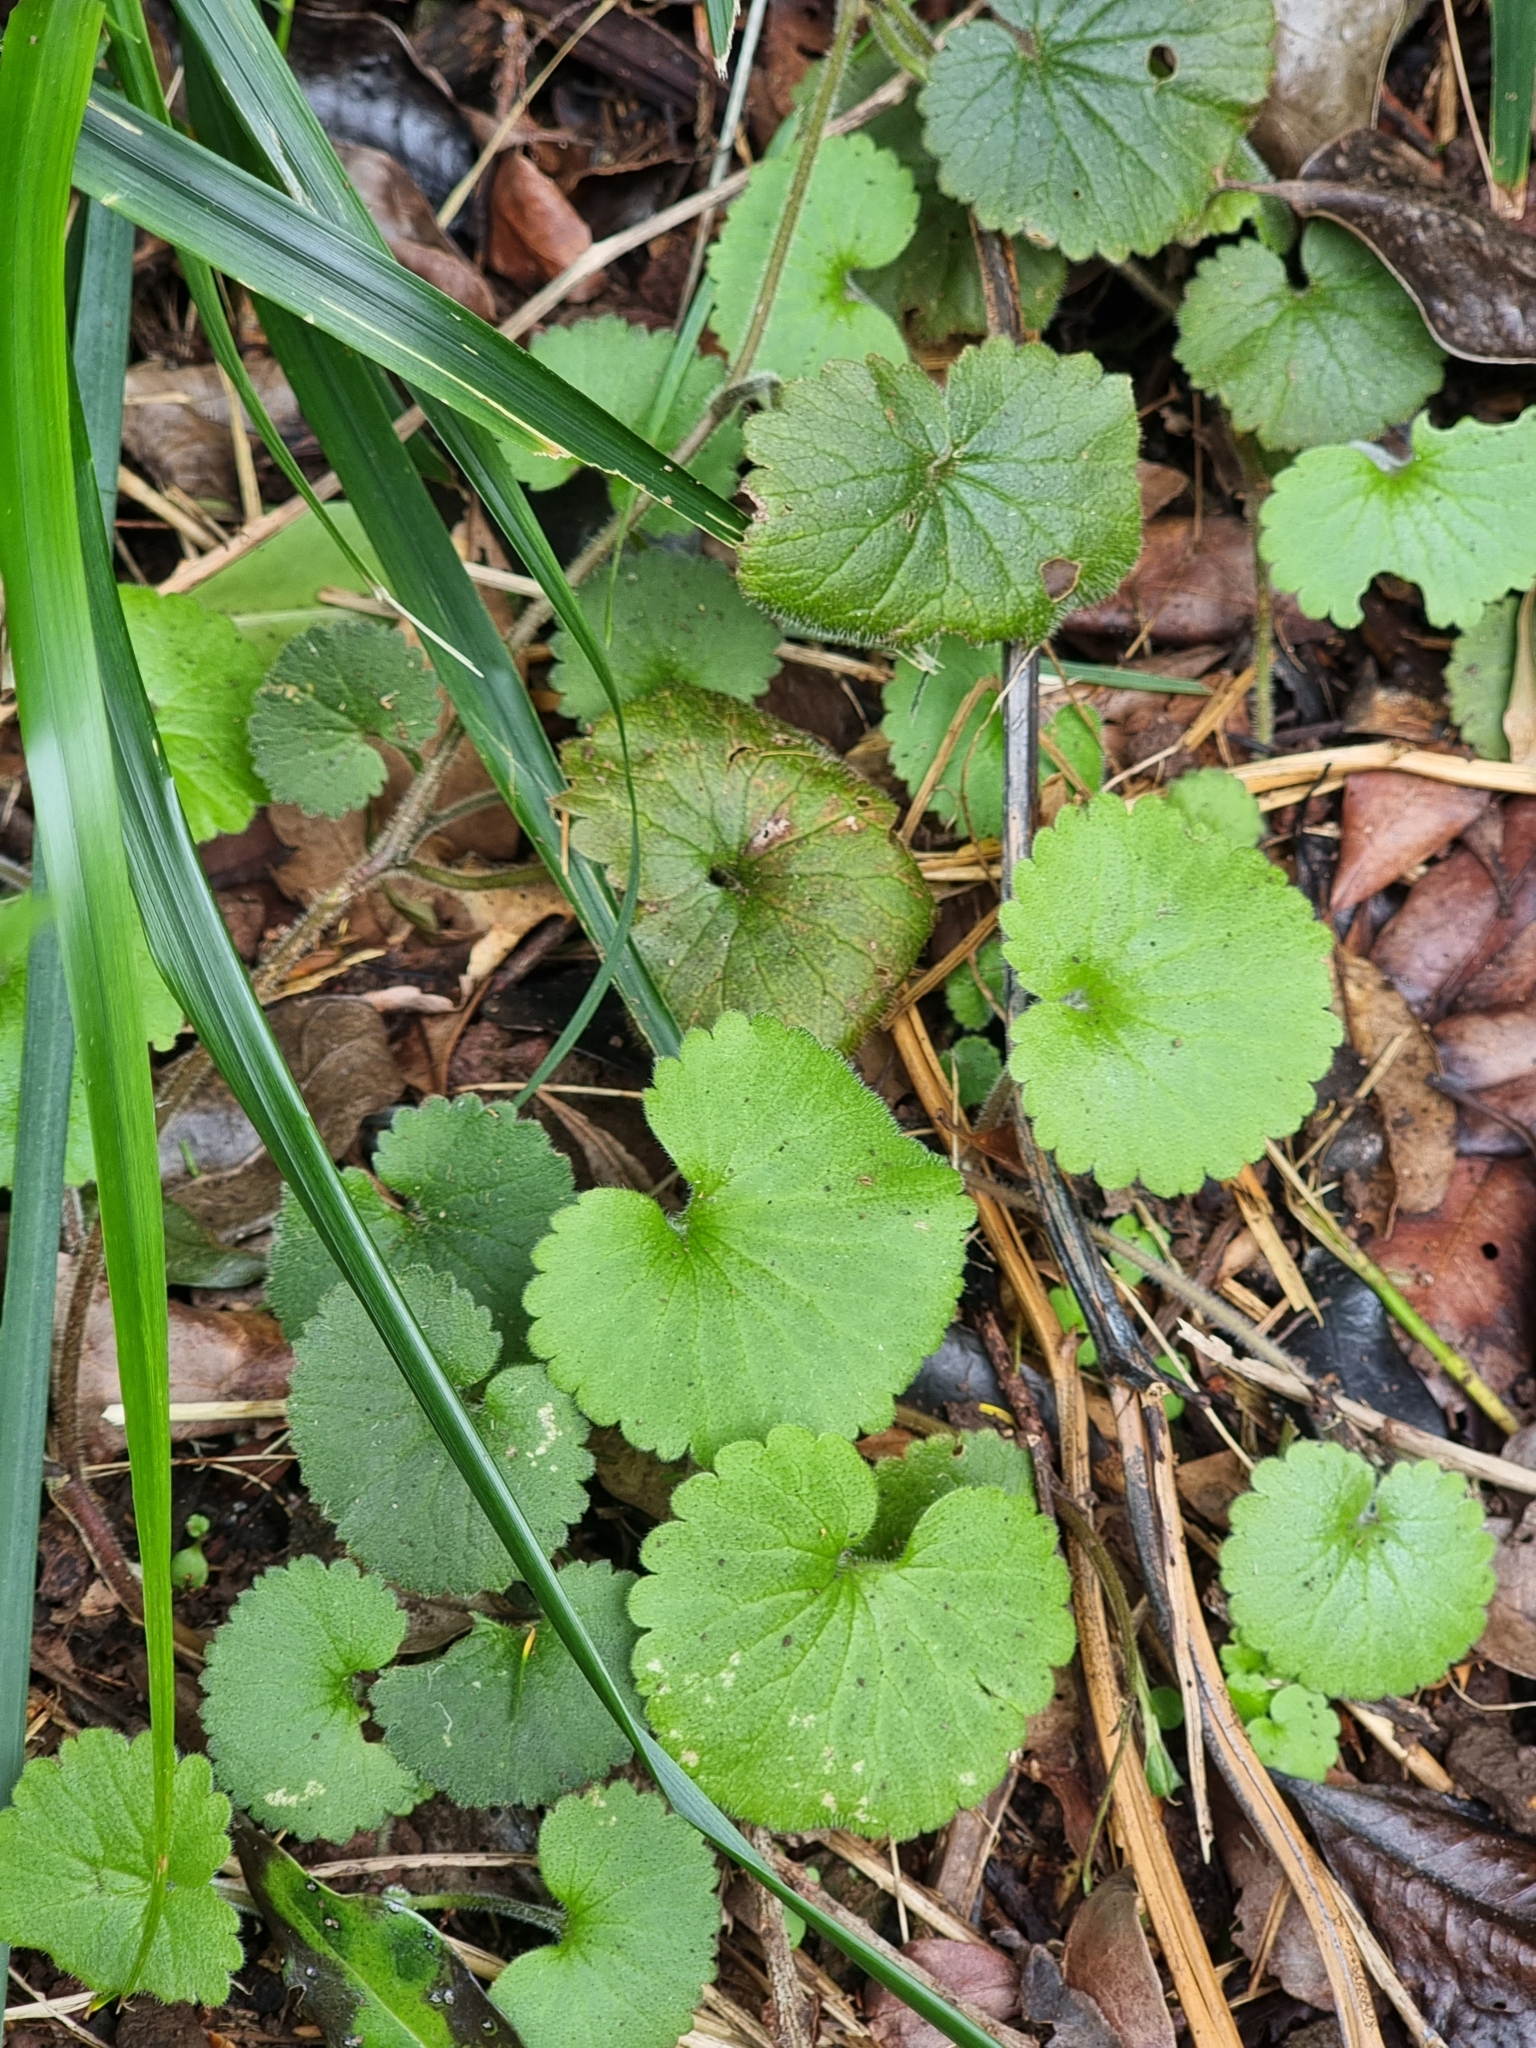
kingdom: Plantae
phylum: Tracheophyta
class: Magnoliopsida
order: Lamiales
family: Plantaginaceae
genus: Sibthorpia
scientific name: Sibthorpia peregrina
